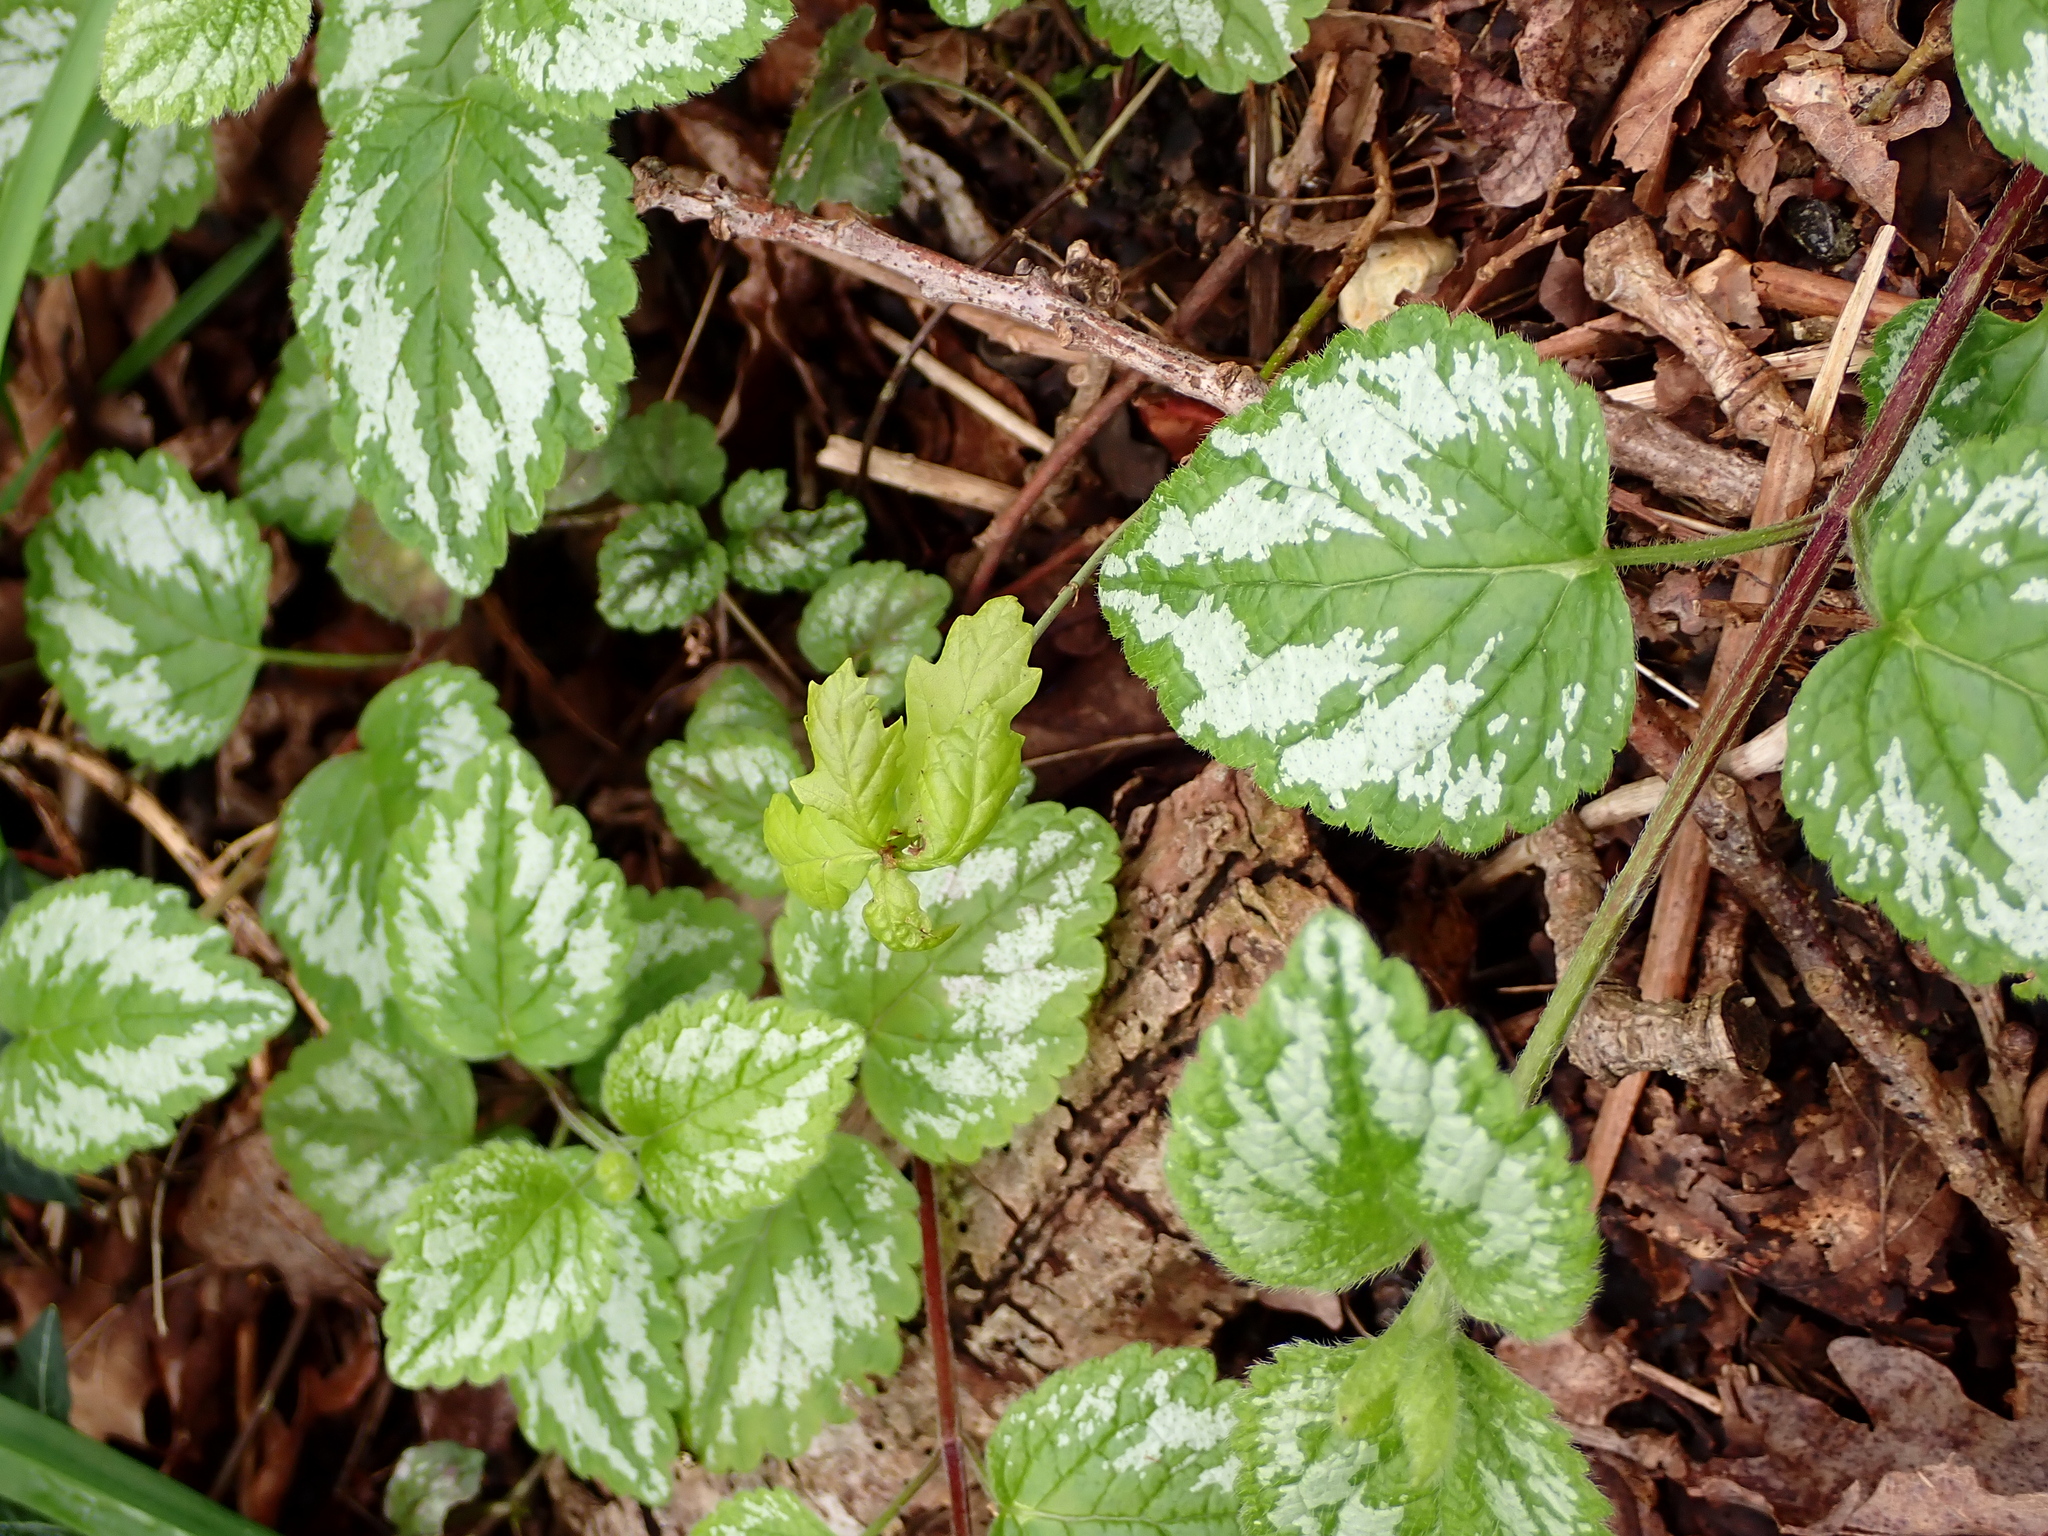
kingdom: Plantae
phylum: Tracheophyta
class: Magnoliopsida
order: Lamiales
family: Lamiaceae
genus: Lamium
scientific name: Lamium galeobdolon
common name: Yellow archangel
